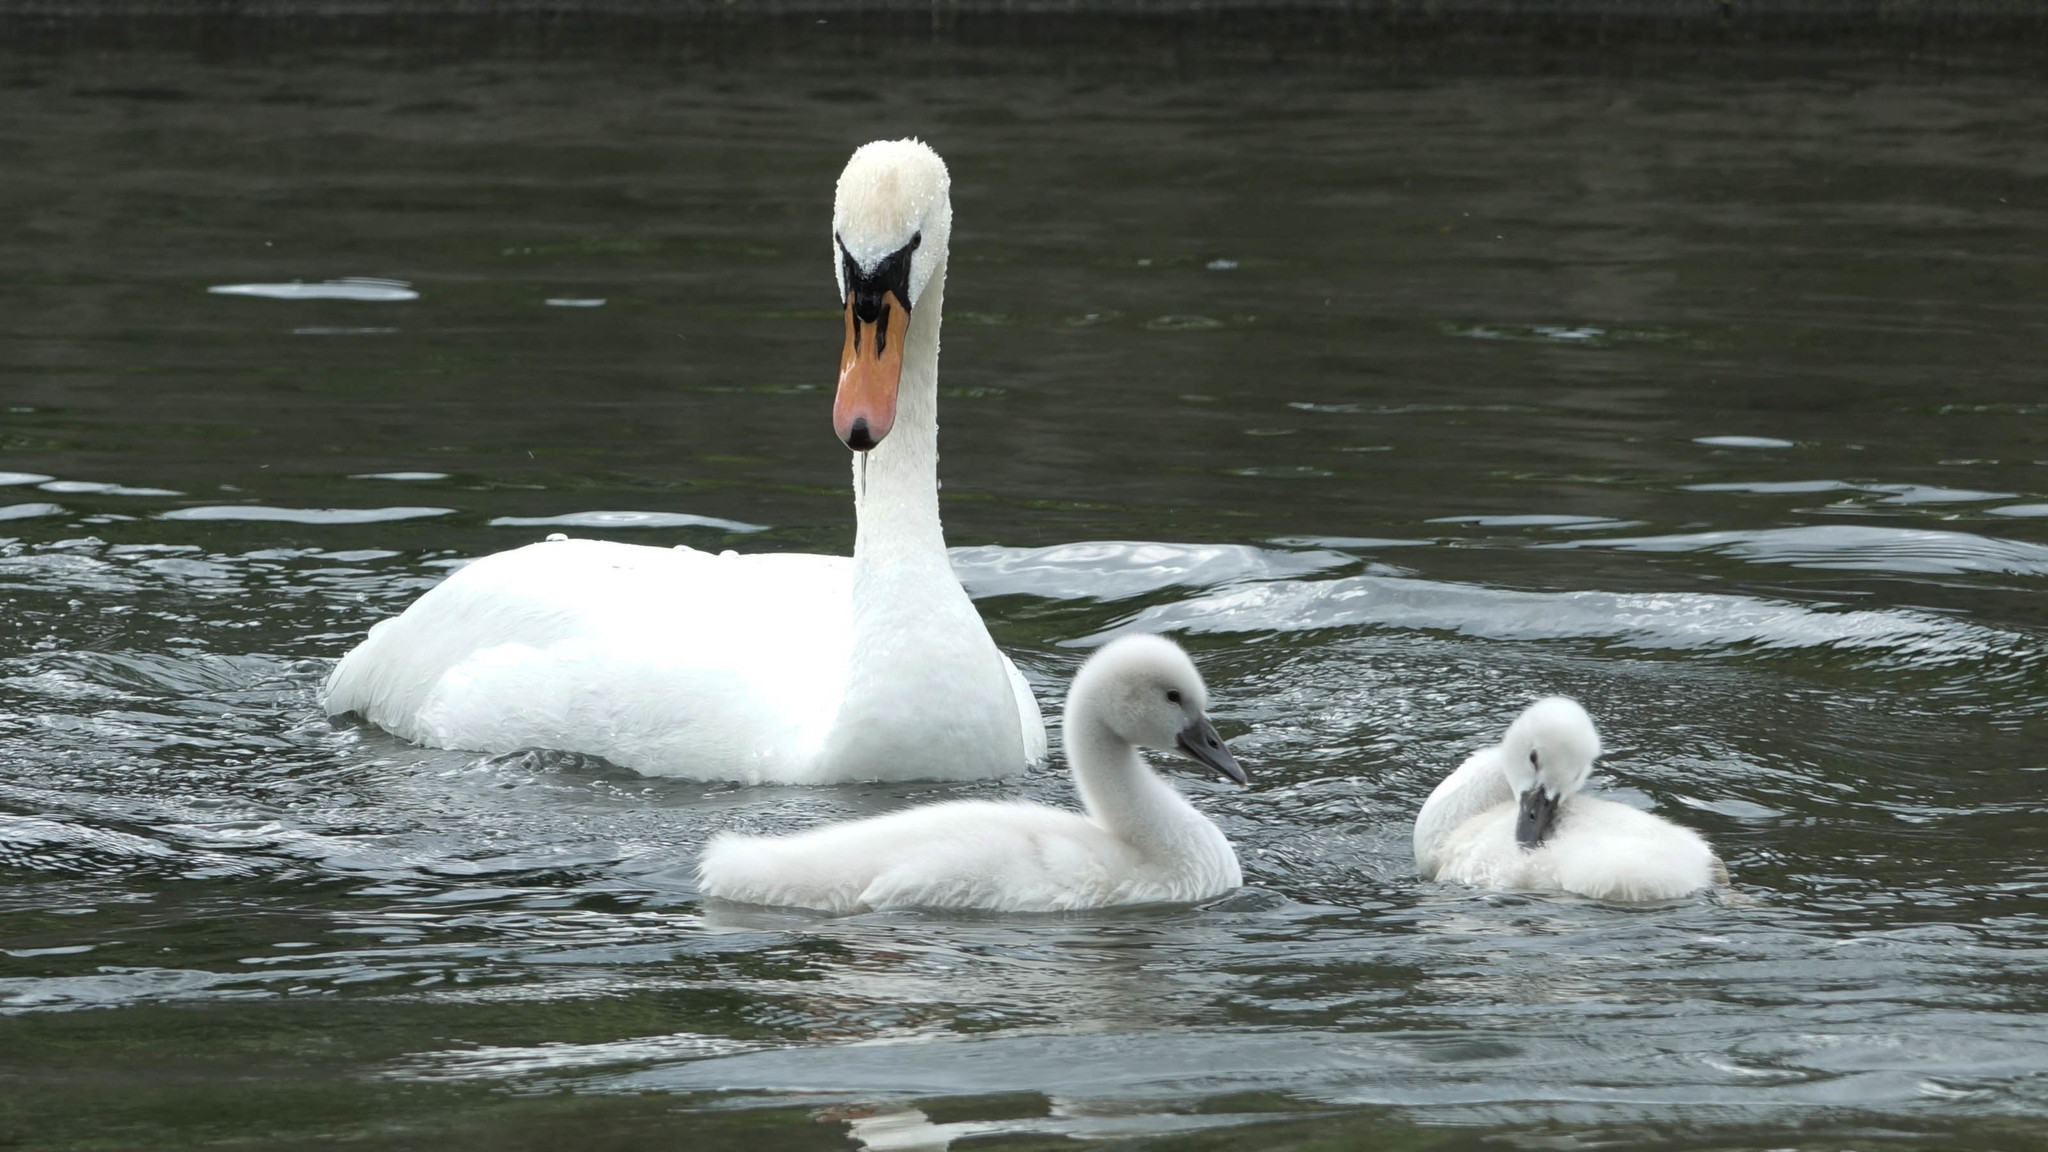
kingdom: Animalia
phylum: Chordata
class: Aves
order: Anseriformes
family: Anatidae
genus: Cygnus
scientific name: Cygnus olor
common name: Mute swan
